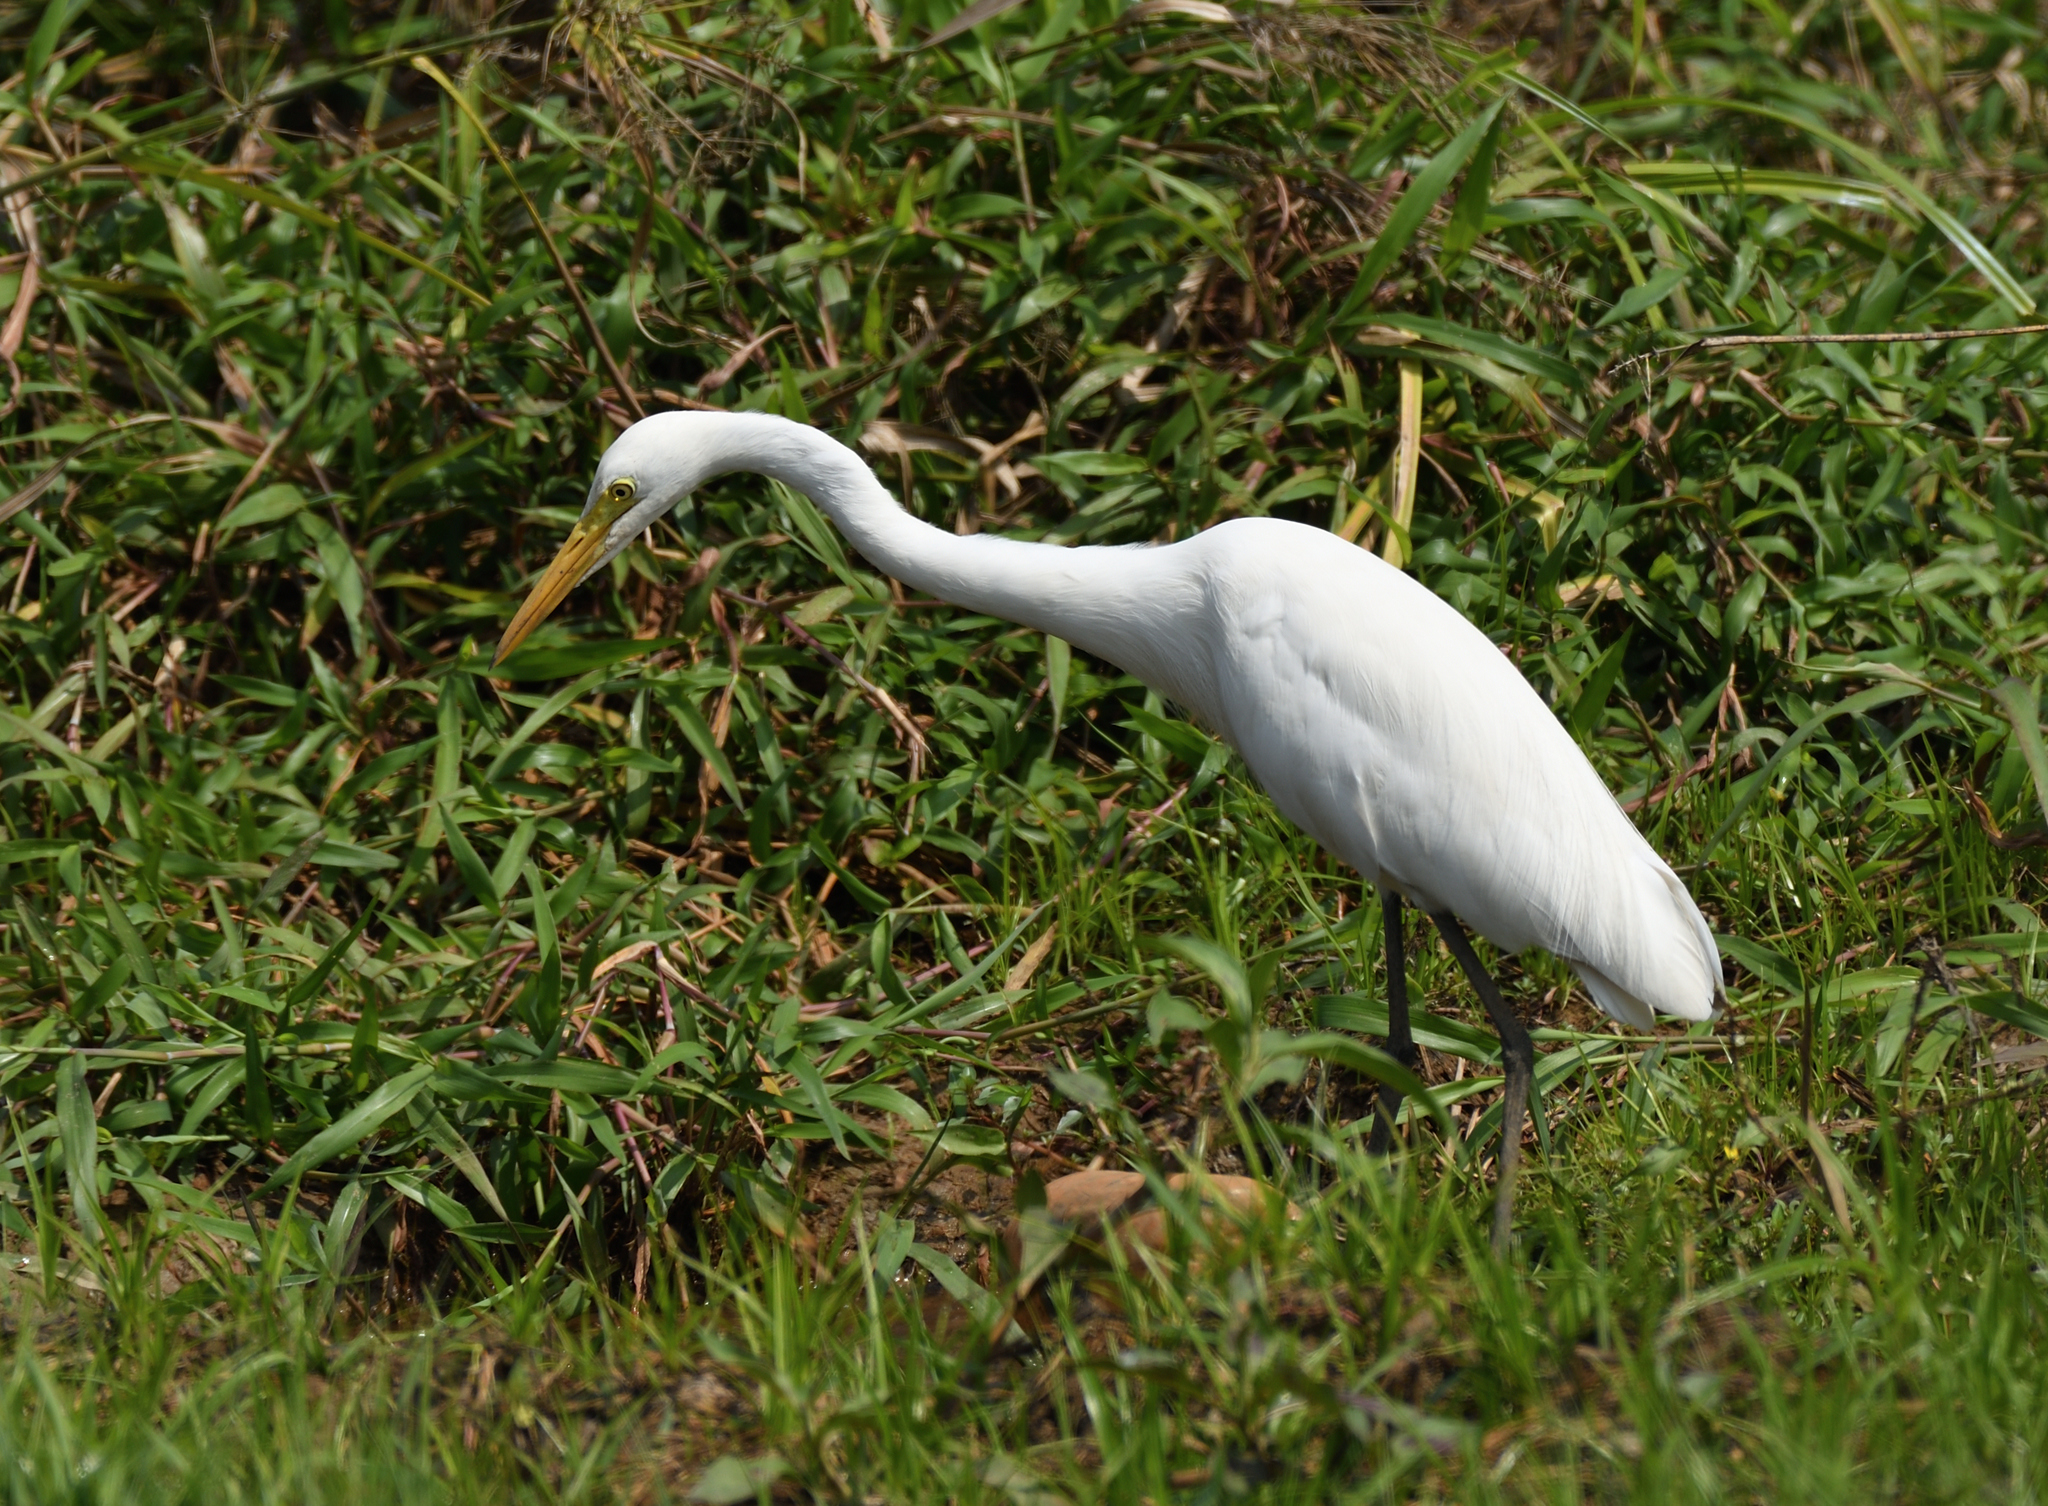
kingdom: Animalia
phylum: Chordata
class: Aves
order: Pelecaniformes
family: Ardeidae
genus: Egretta
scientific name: Egretta intermedia
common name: Intermediate egret
